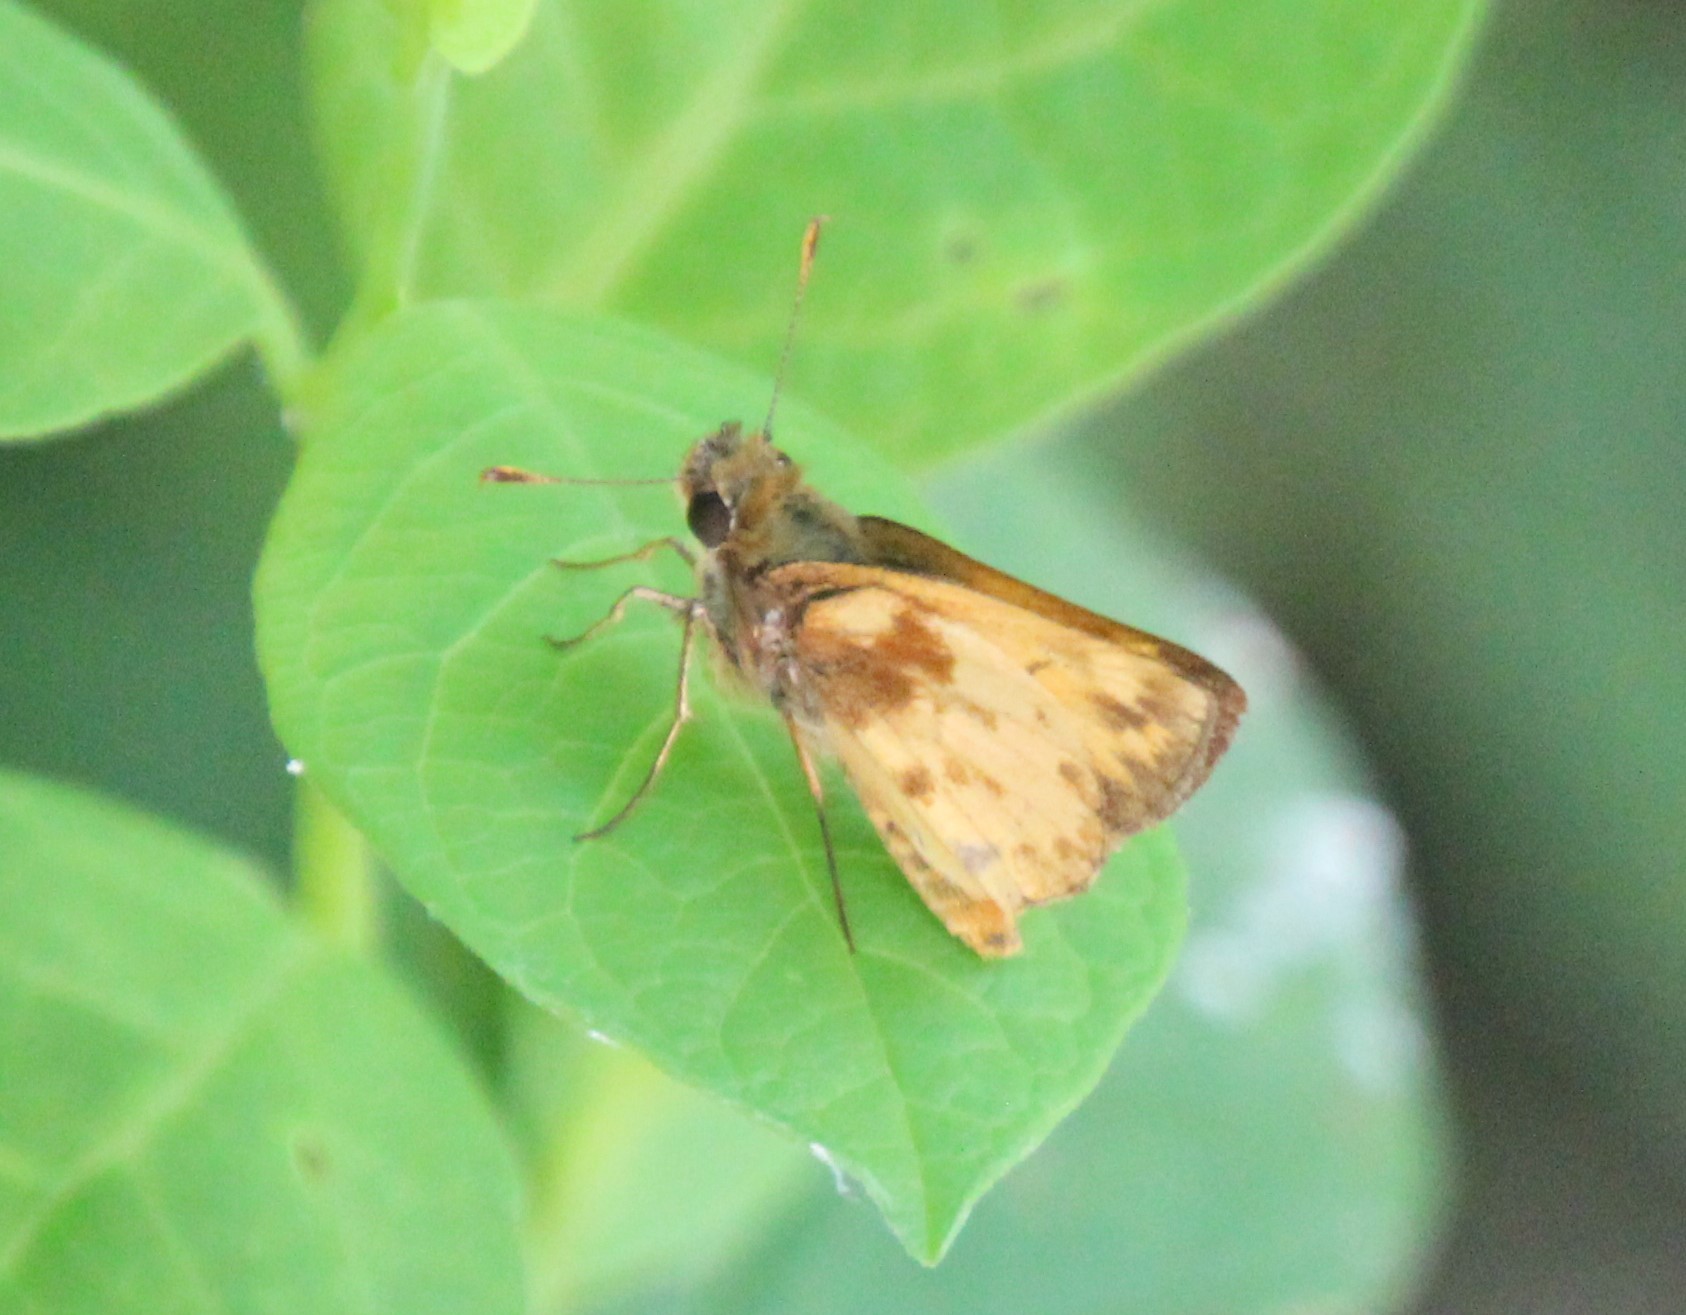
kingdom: Animalia
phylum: Arthropoda
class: Insecta
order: Lepidoptera
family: Hesperiidae
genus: Lon
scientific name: Lon zabulon
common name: Zabulon skipper
